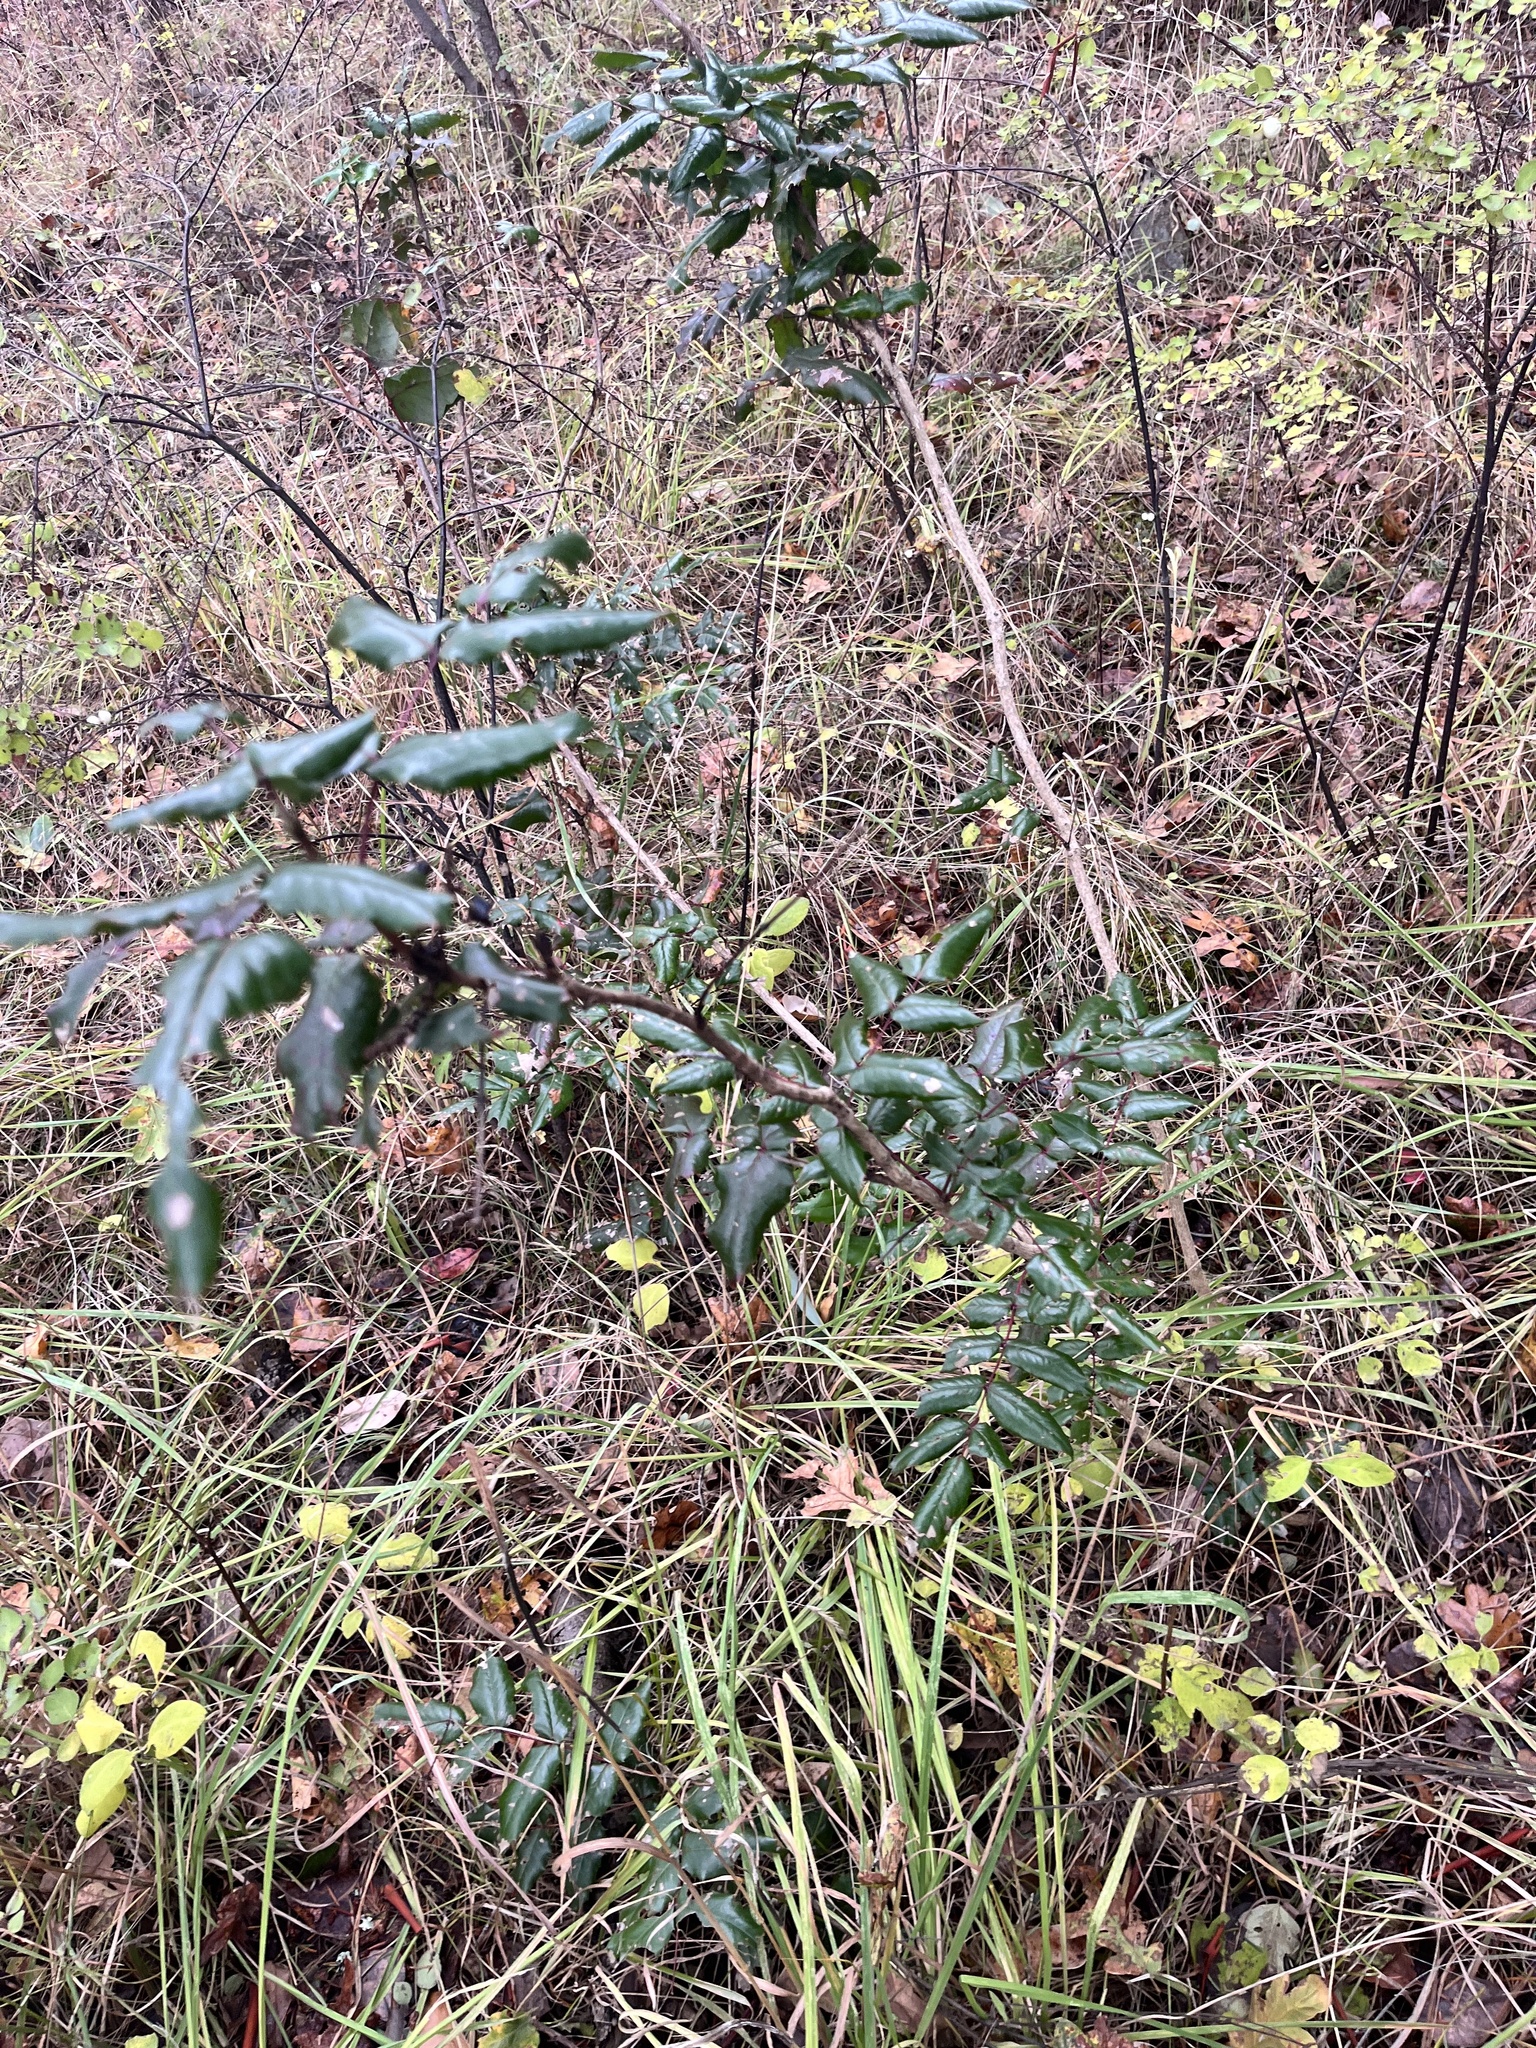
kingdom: Plantae
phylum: Tracheophyta
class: Magnoliopsida
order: Ranunculales
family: Berberidaceae
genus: Mahonia
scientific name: Mahonia aquifolium
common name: Oregon-grape
